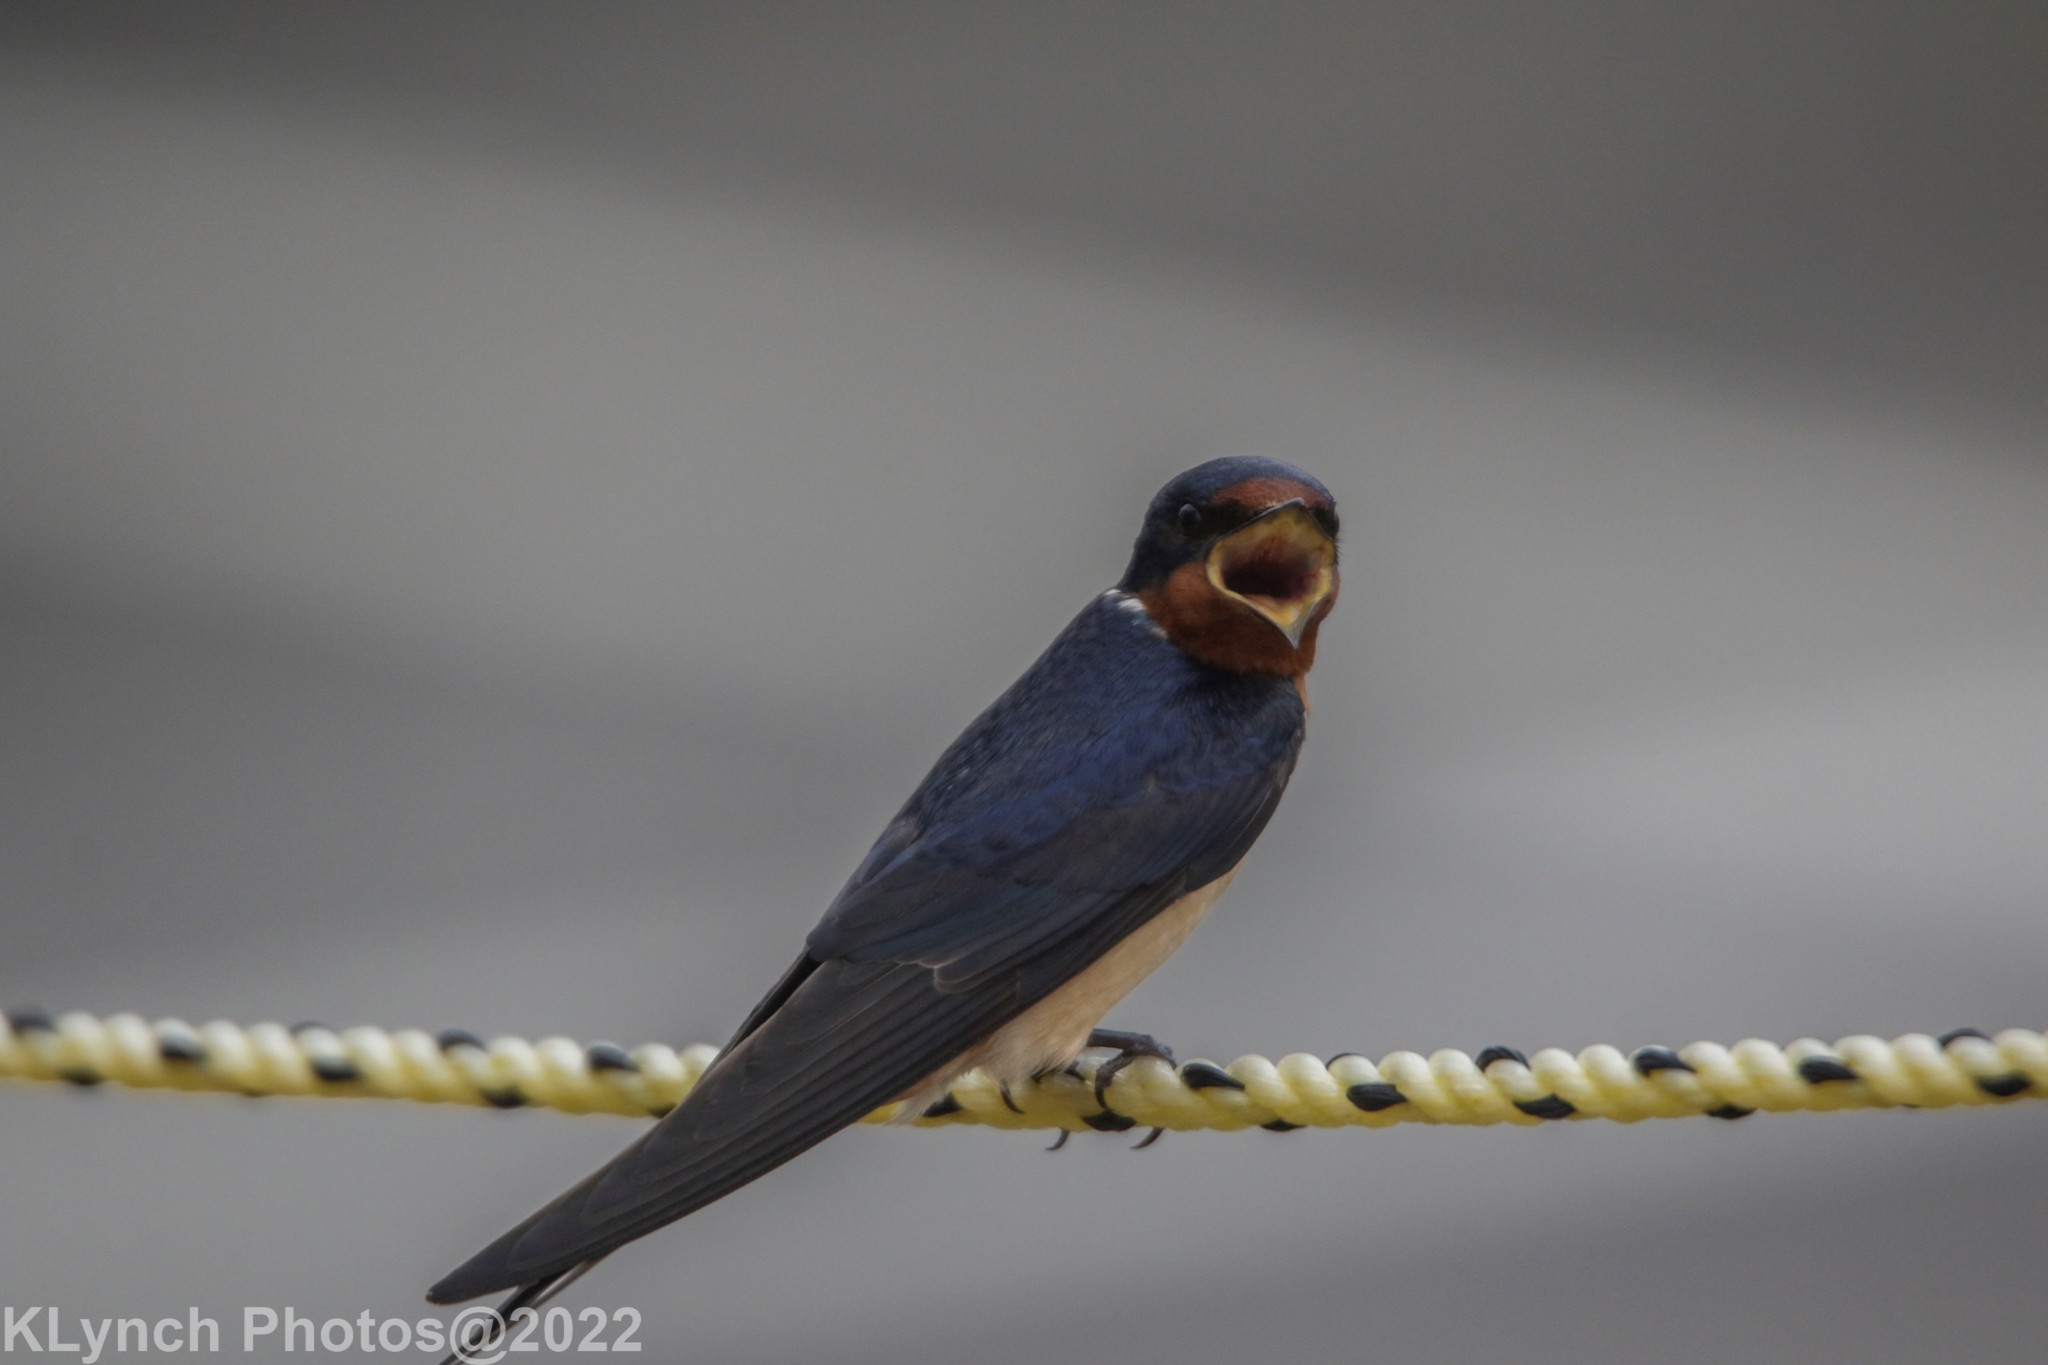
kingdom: Animalia
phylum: Chordata
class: Aves
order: Passeriformes
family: Hirundinidae
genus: Hirundo
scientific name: Hirundo rustica
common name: Barn swallow
